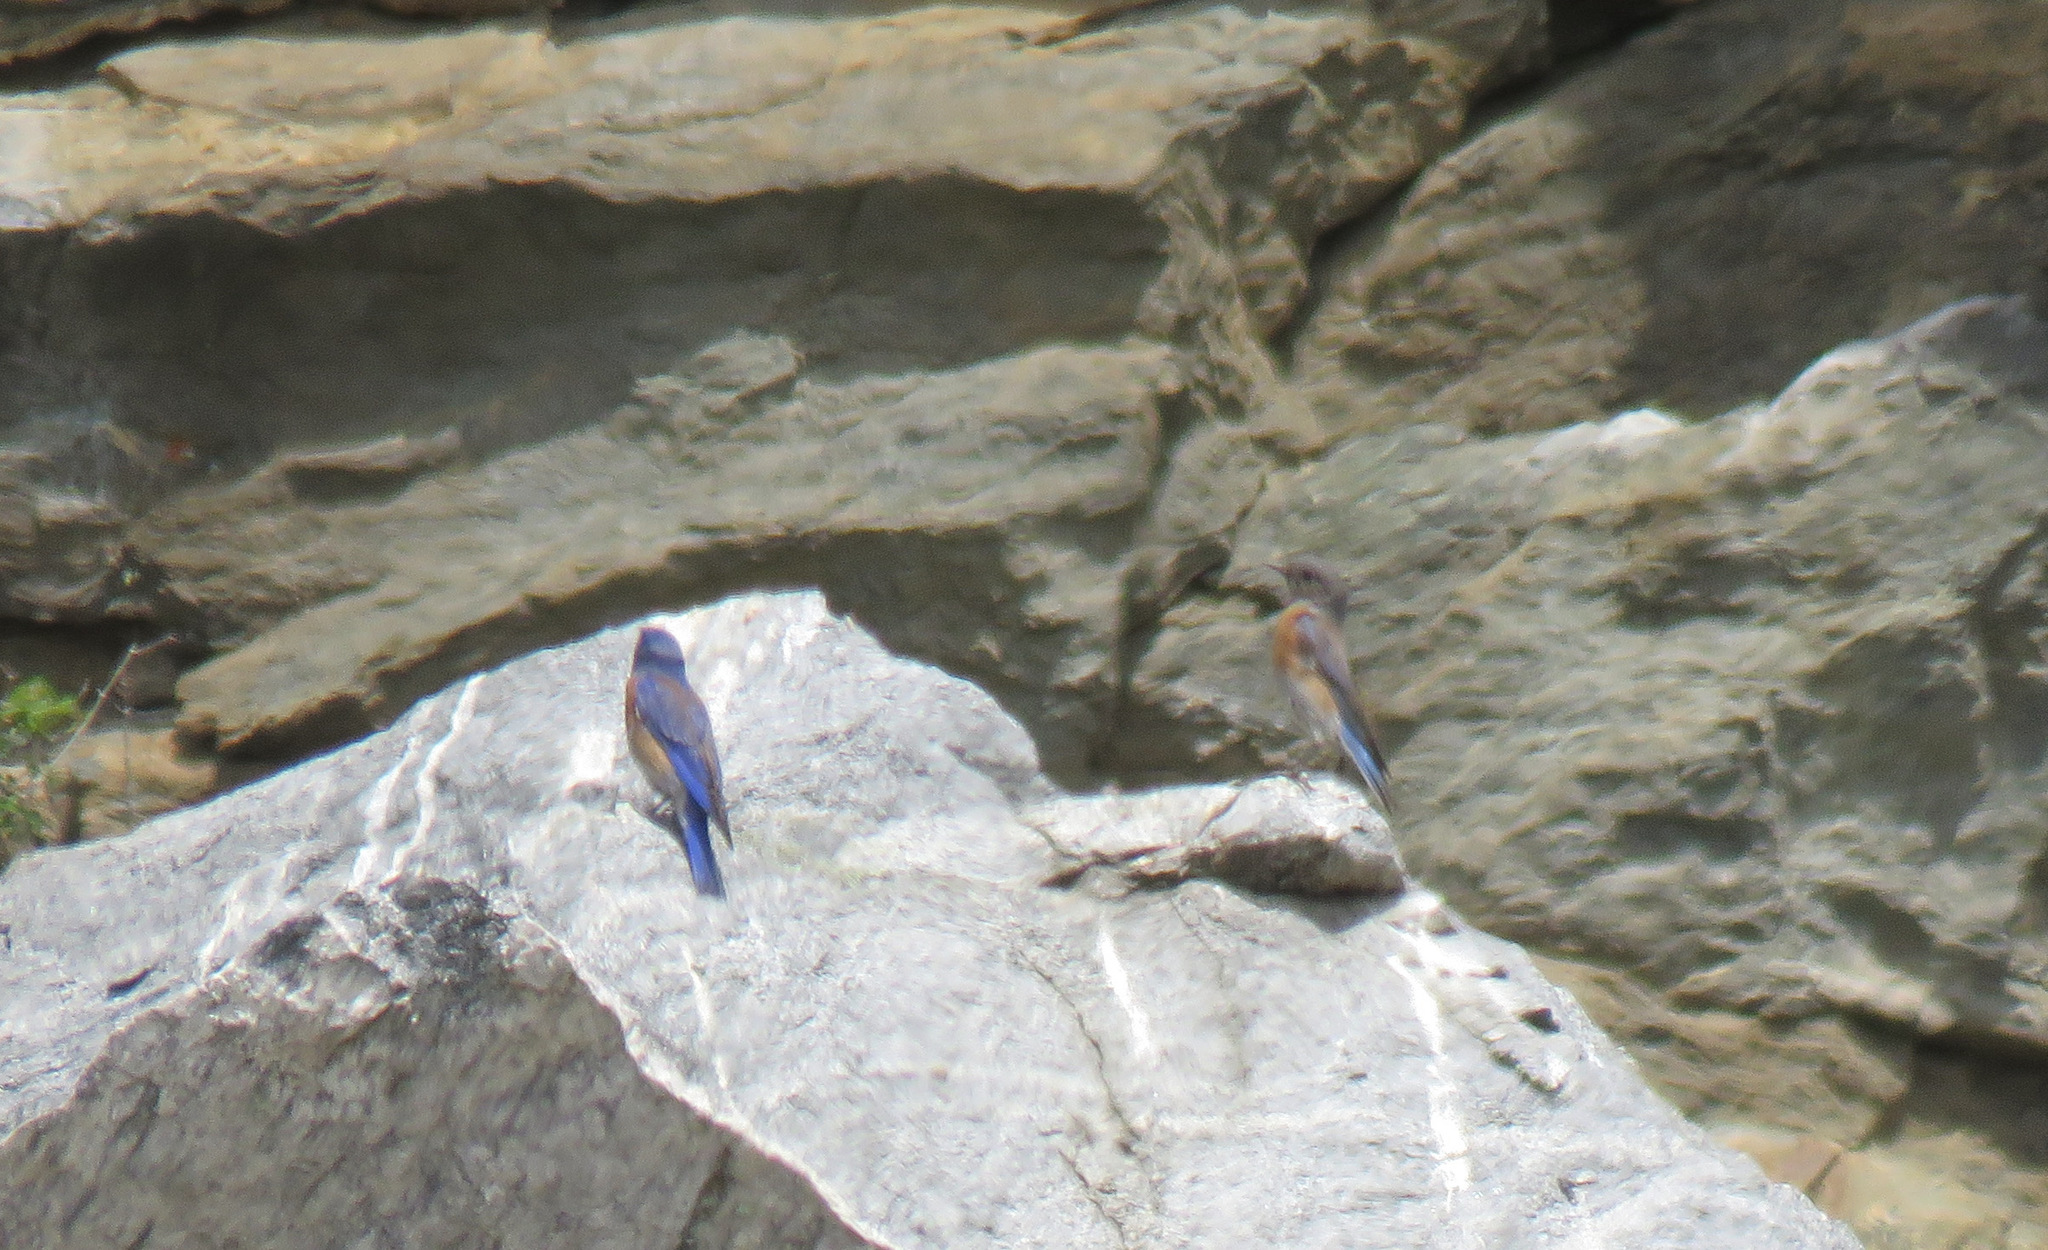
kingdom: Animalia
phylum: Chordata
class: Aves
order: Passeriformes
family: Turdidae
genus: Sialia
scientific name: Sialia mexicana
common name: Western bluebird
